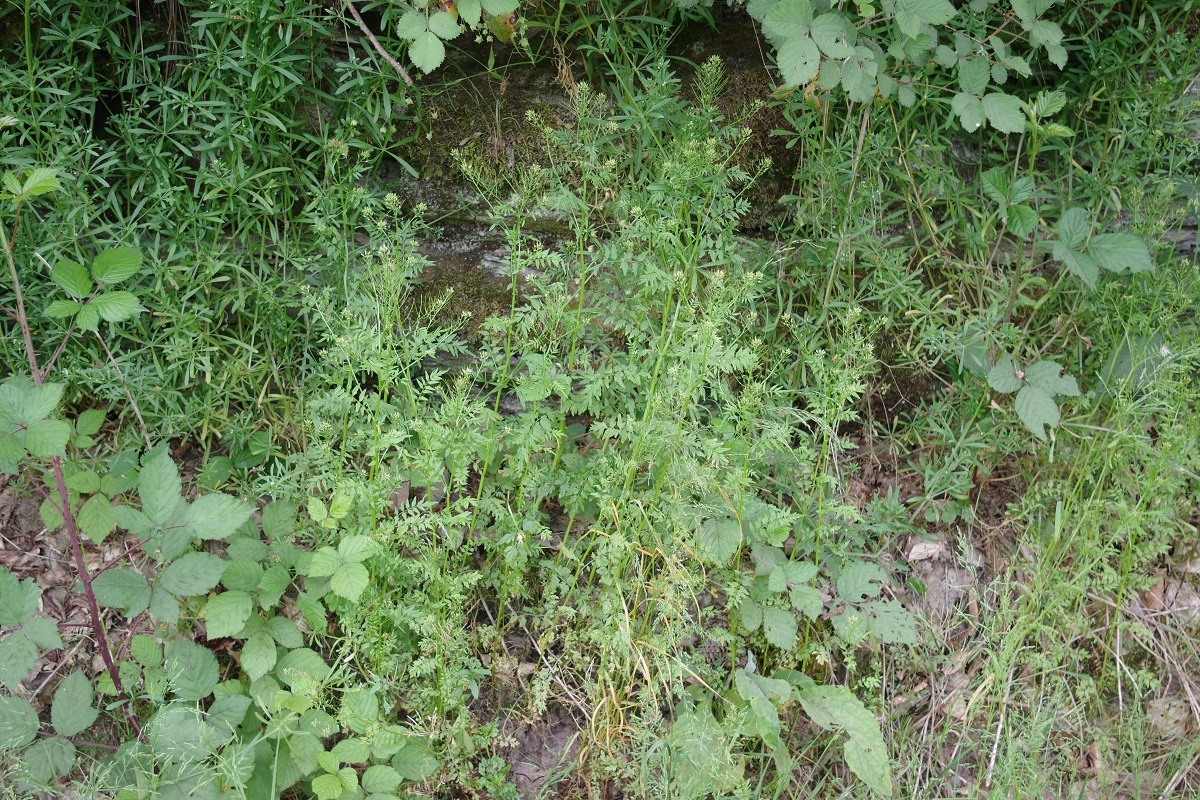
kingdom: Plantae
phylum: Tracheophyta
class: Magnoliopsida
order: Brassicales
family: Brassicaceae
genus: Cardamine
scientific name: Cardamine impatiens
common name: Narrow-leaved bitter-cress
